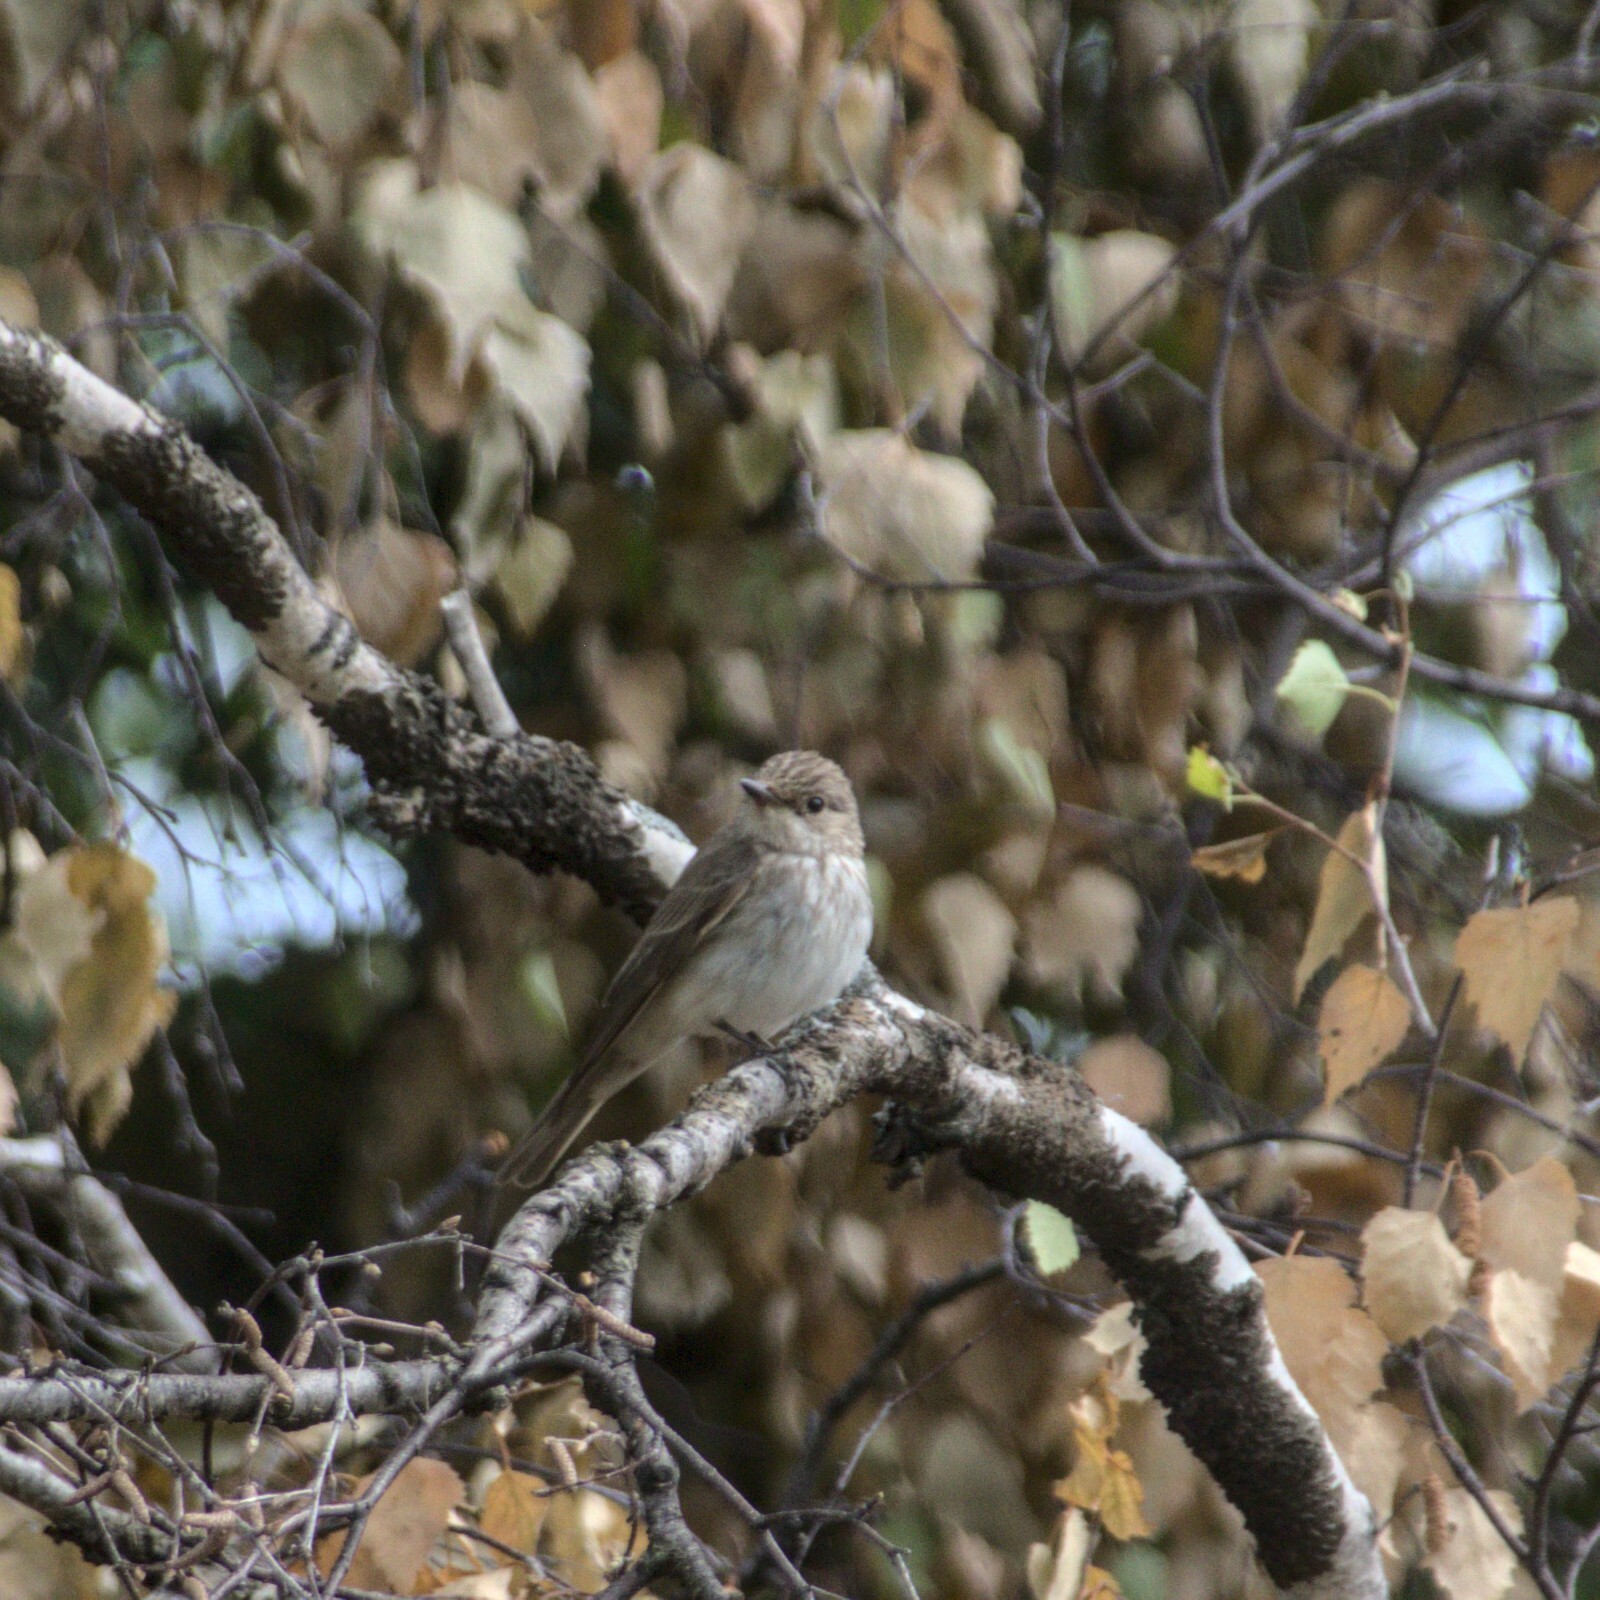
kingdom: Animalia
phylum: Chordata
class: Aves
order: Passeriformes
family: Muscicapidae
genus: Muscicapa
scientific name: Muscicapa striata
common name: Spotted flycatcher
